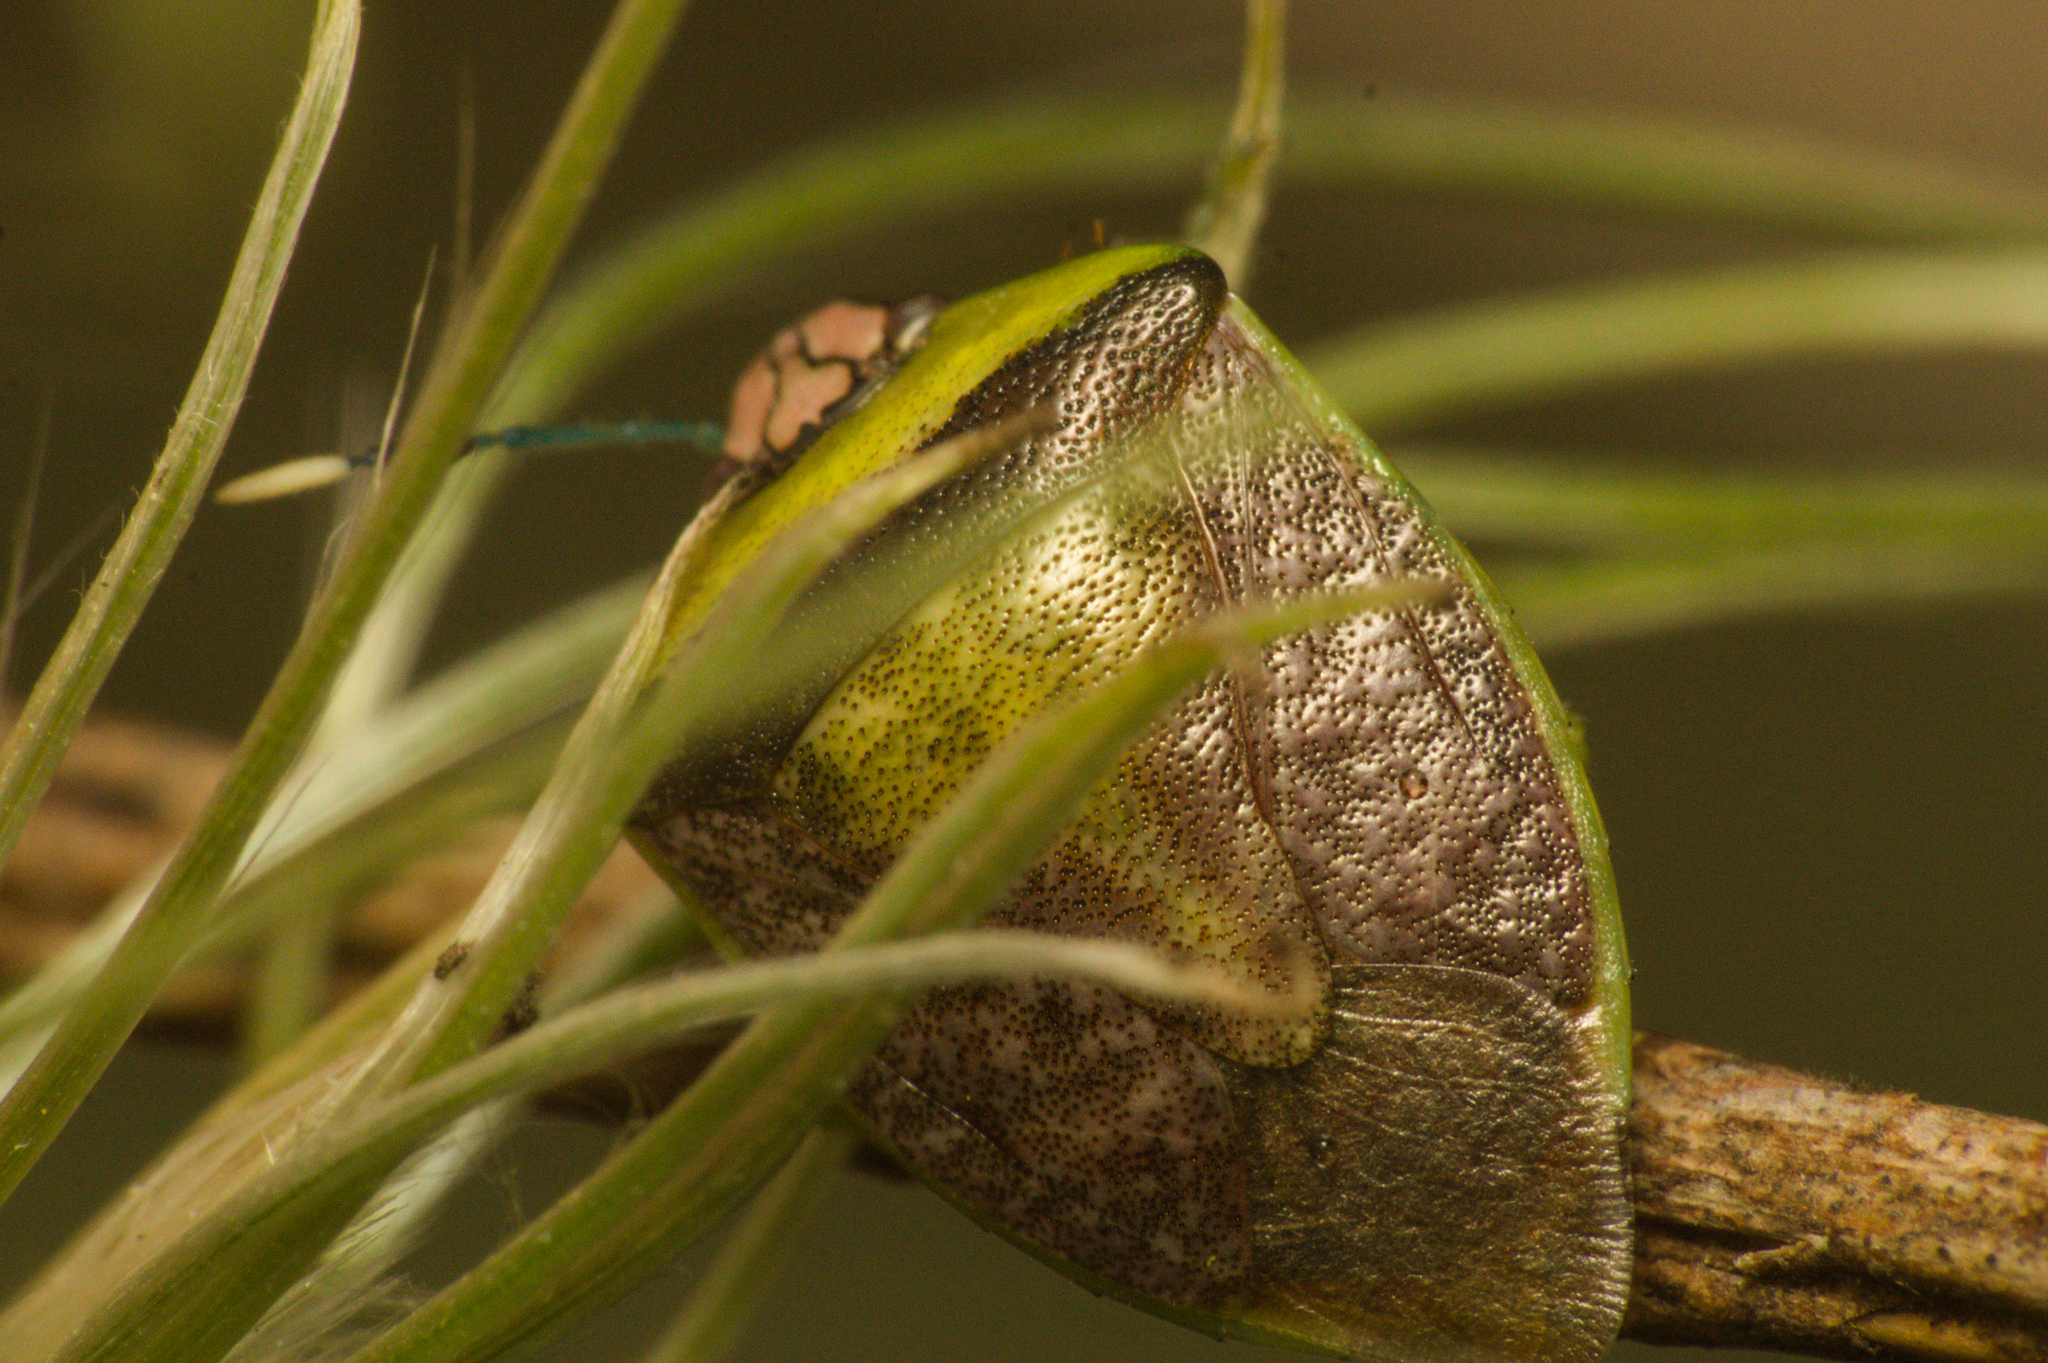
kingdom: Animalia
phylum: Arthropoda
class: Insecta
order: Hemiptera
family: Pentatomidae
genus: Kermana
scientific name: Kermana fucosa
